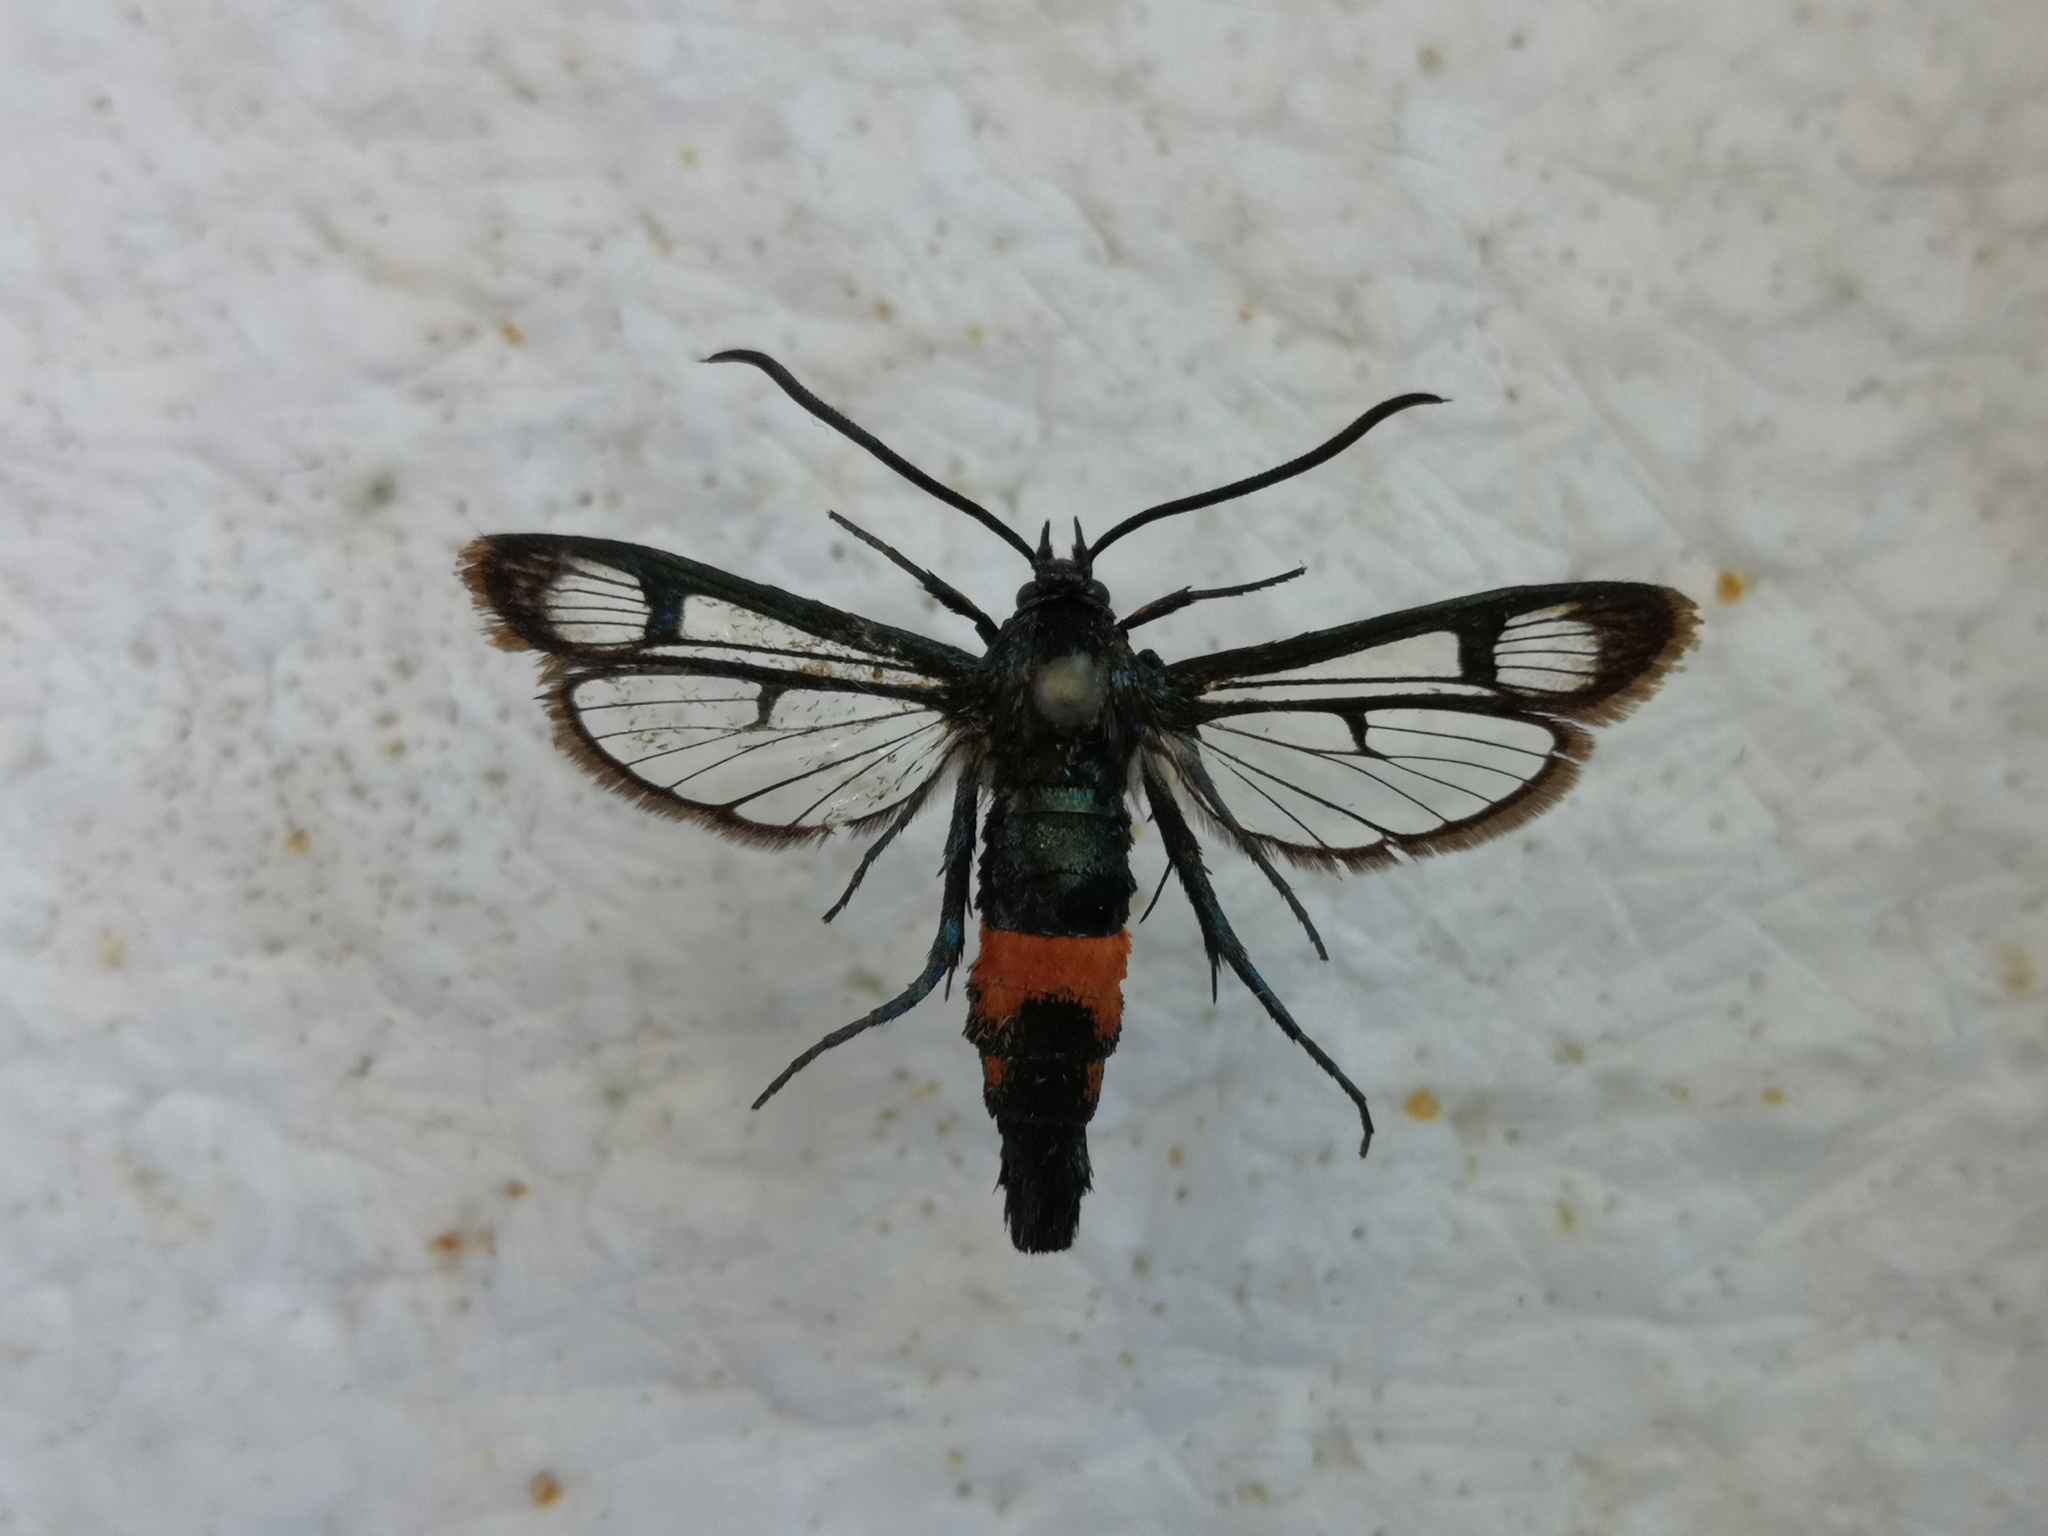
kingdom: Animalia
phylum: Arthropoda
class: Insecta
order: Lepidoptera
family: Sesiidae
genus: Synanthedon
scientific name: Synanthedon stomoxiformis
